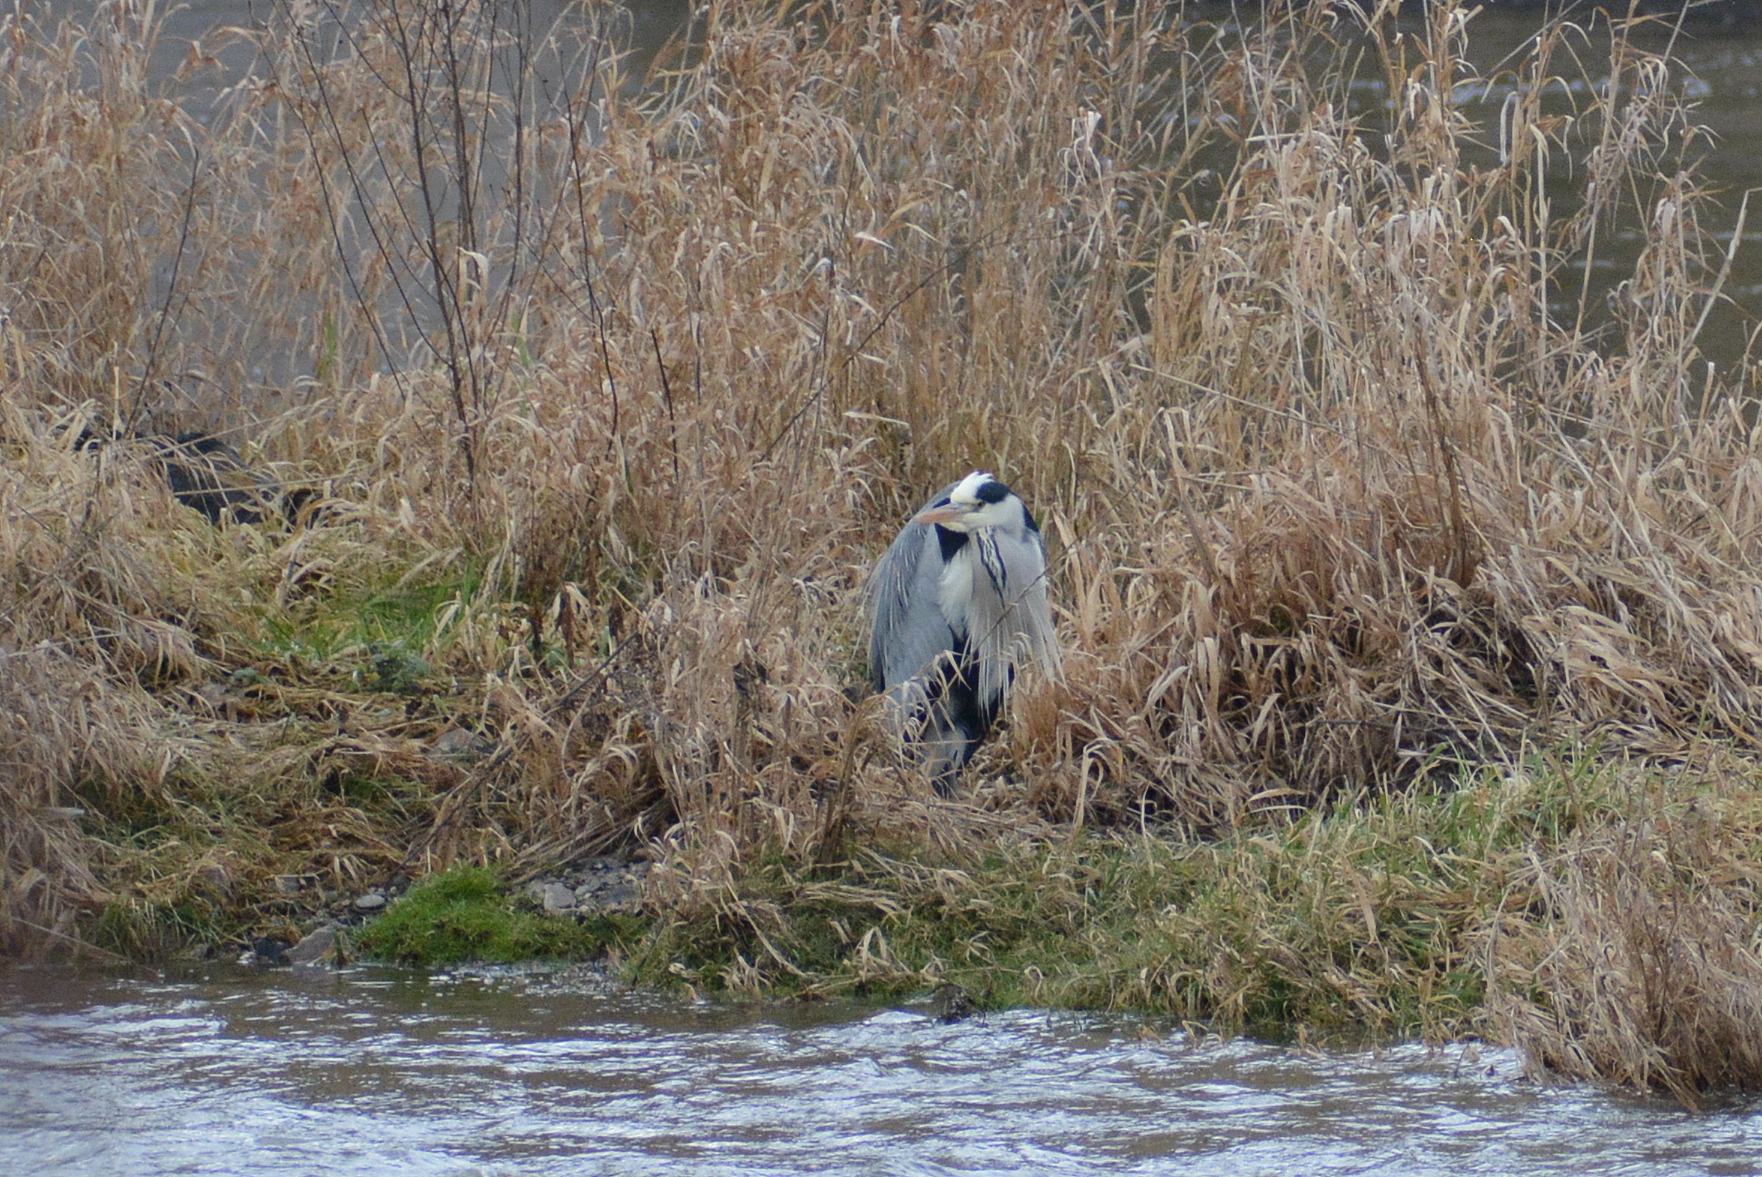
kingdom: Animalia
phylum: Chordata
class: Aves
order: Pelecaniformes
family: Ardeidae
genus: Ardea
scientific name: Ardea cinerea
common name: Grey heron
